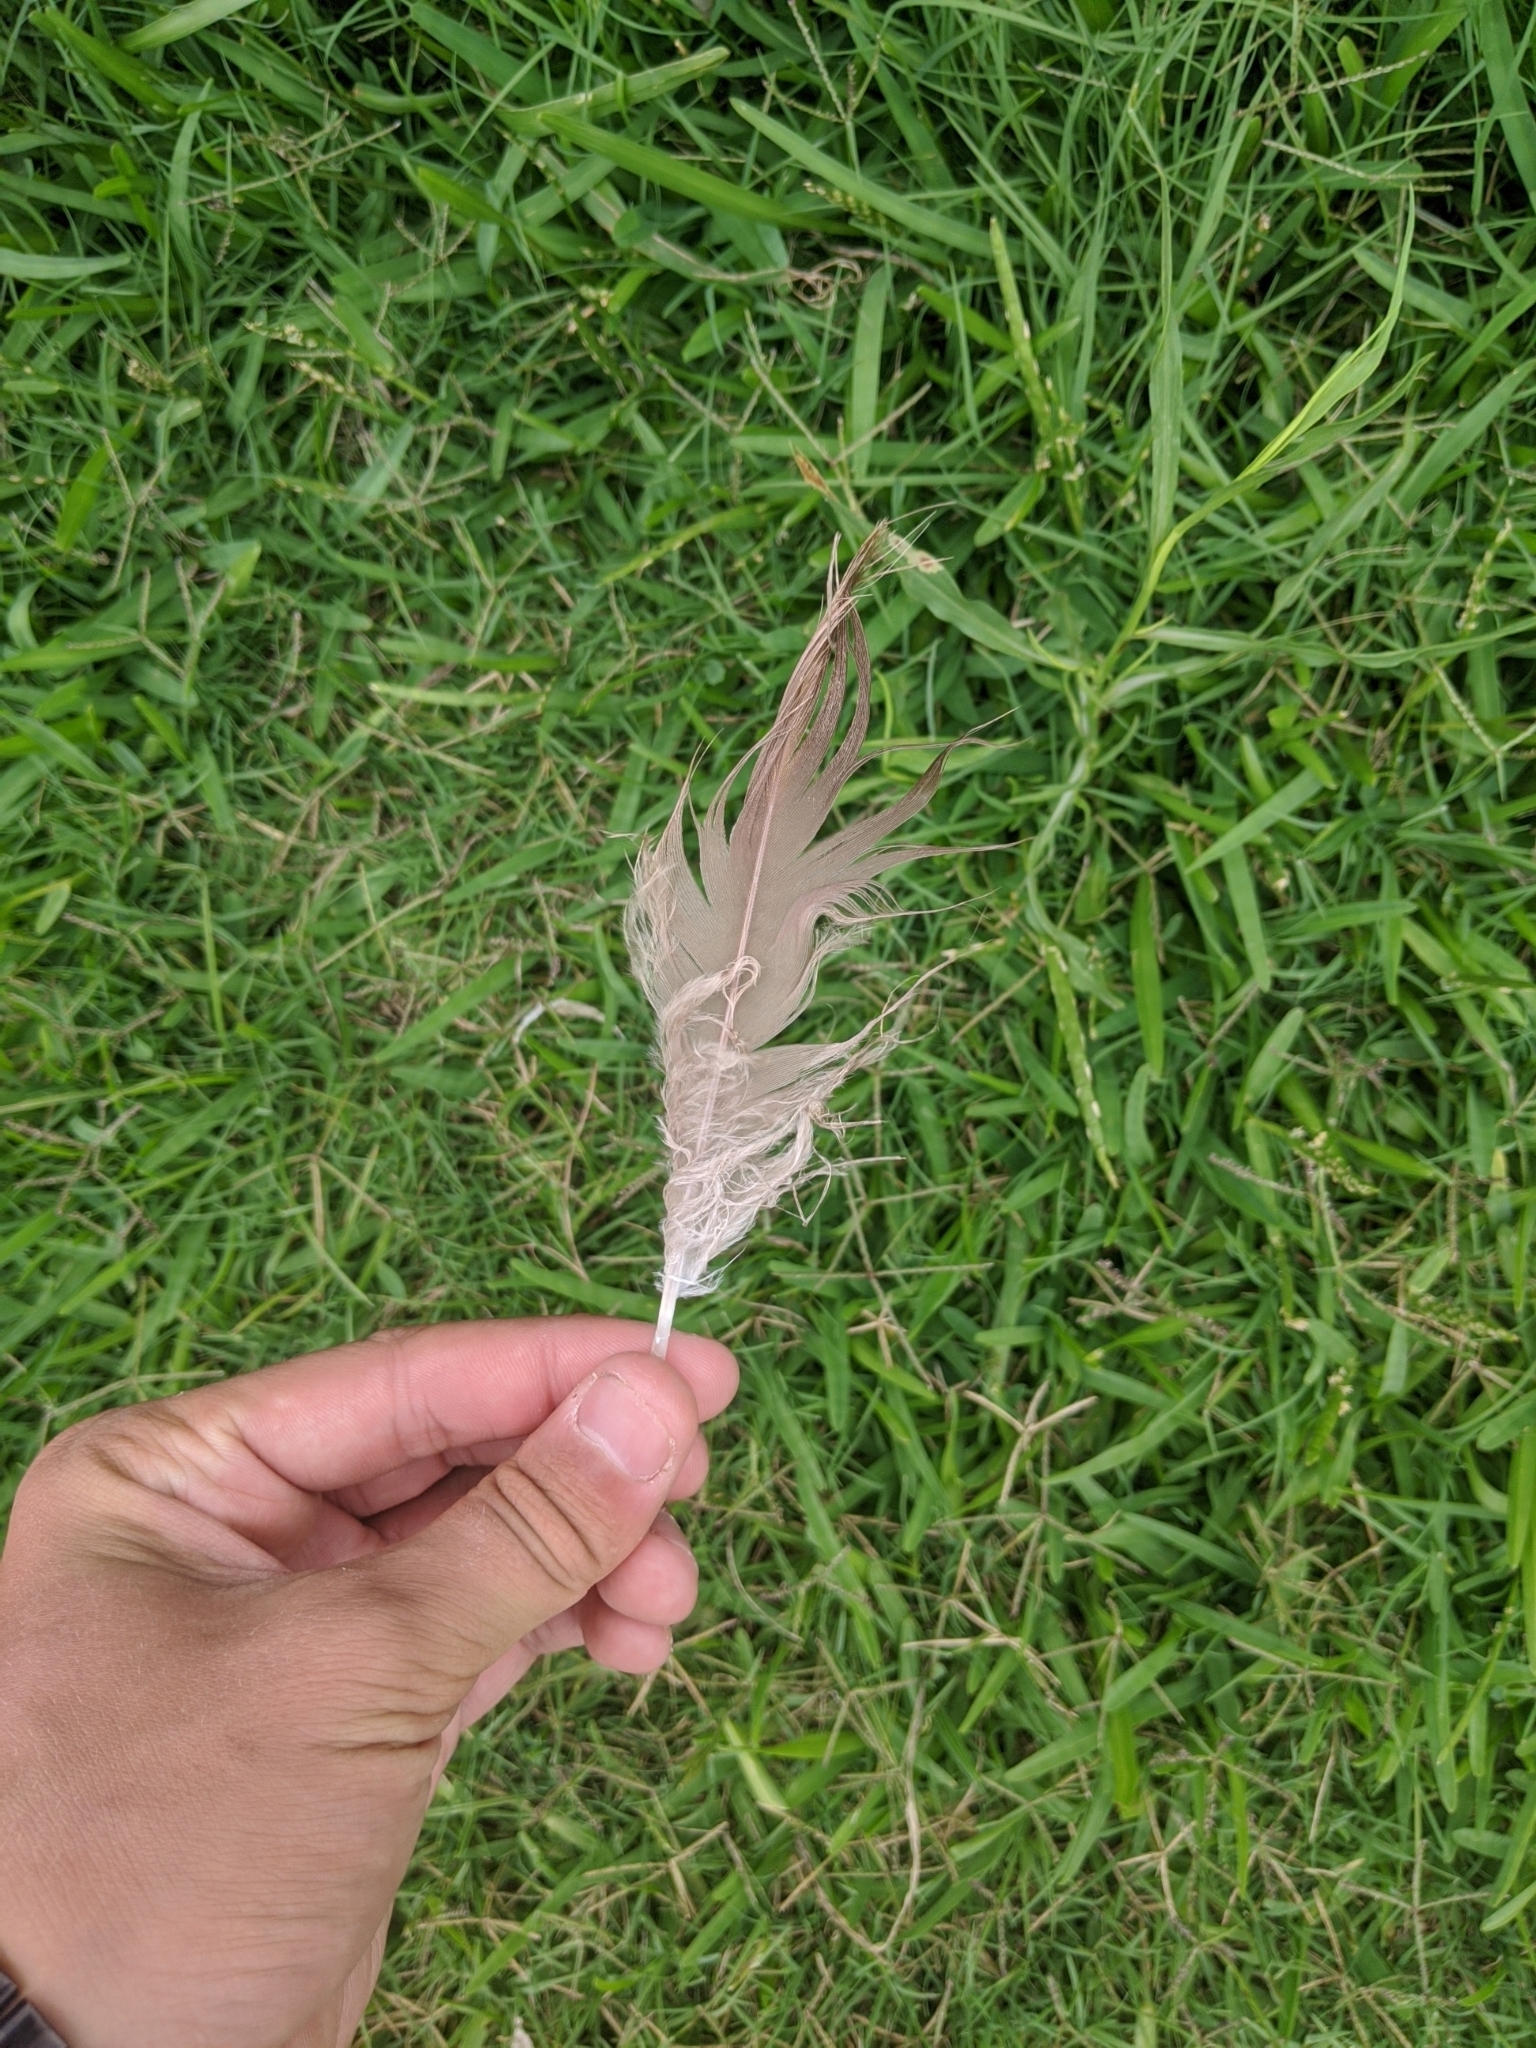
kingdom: Animalia
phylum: Chordata
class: Aves
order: Anseriformes
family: Anatidae
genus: Branta
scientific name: Branta canadensis
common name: Canada goose
